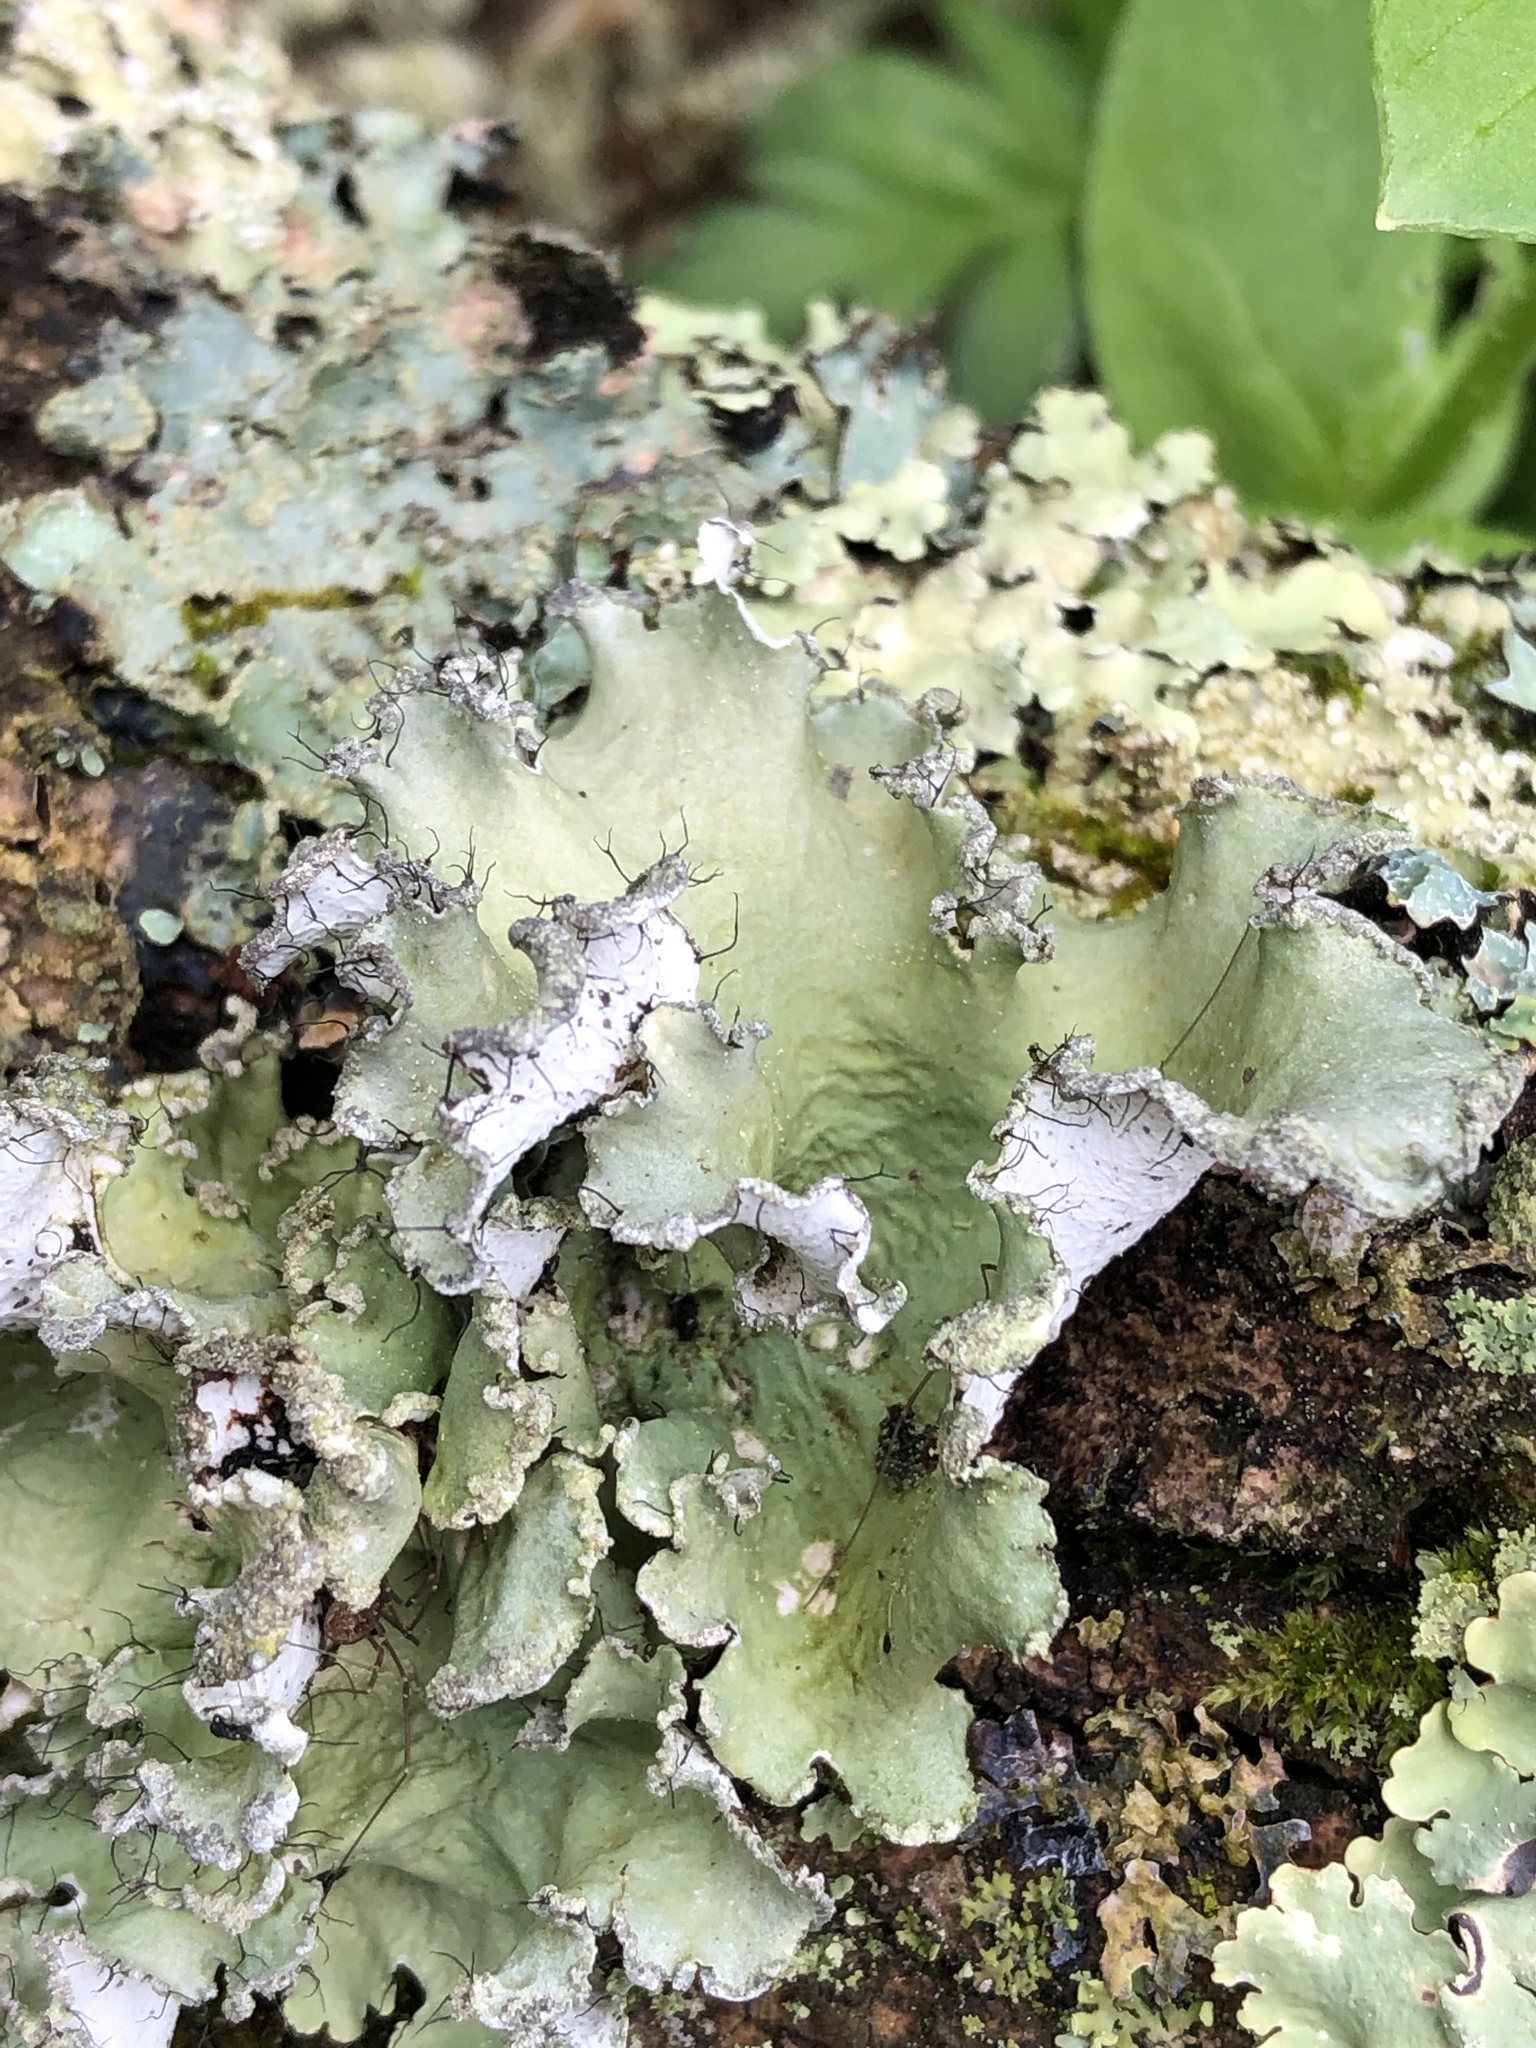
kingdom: Fungi
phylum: Ascomycota
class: Lecanoromycetes
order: Lecanorales
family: Parmeliaceae
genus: Parmotrema
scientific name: Parmotrema hypotropum
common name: Powdered ruffle lichen
